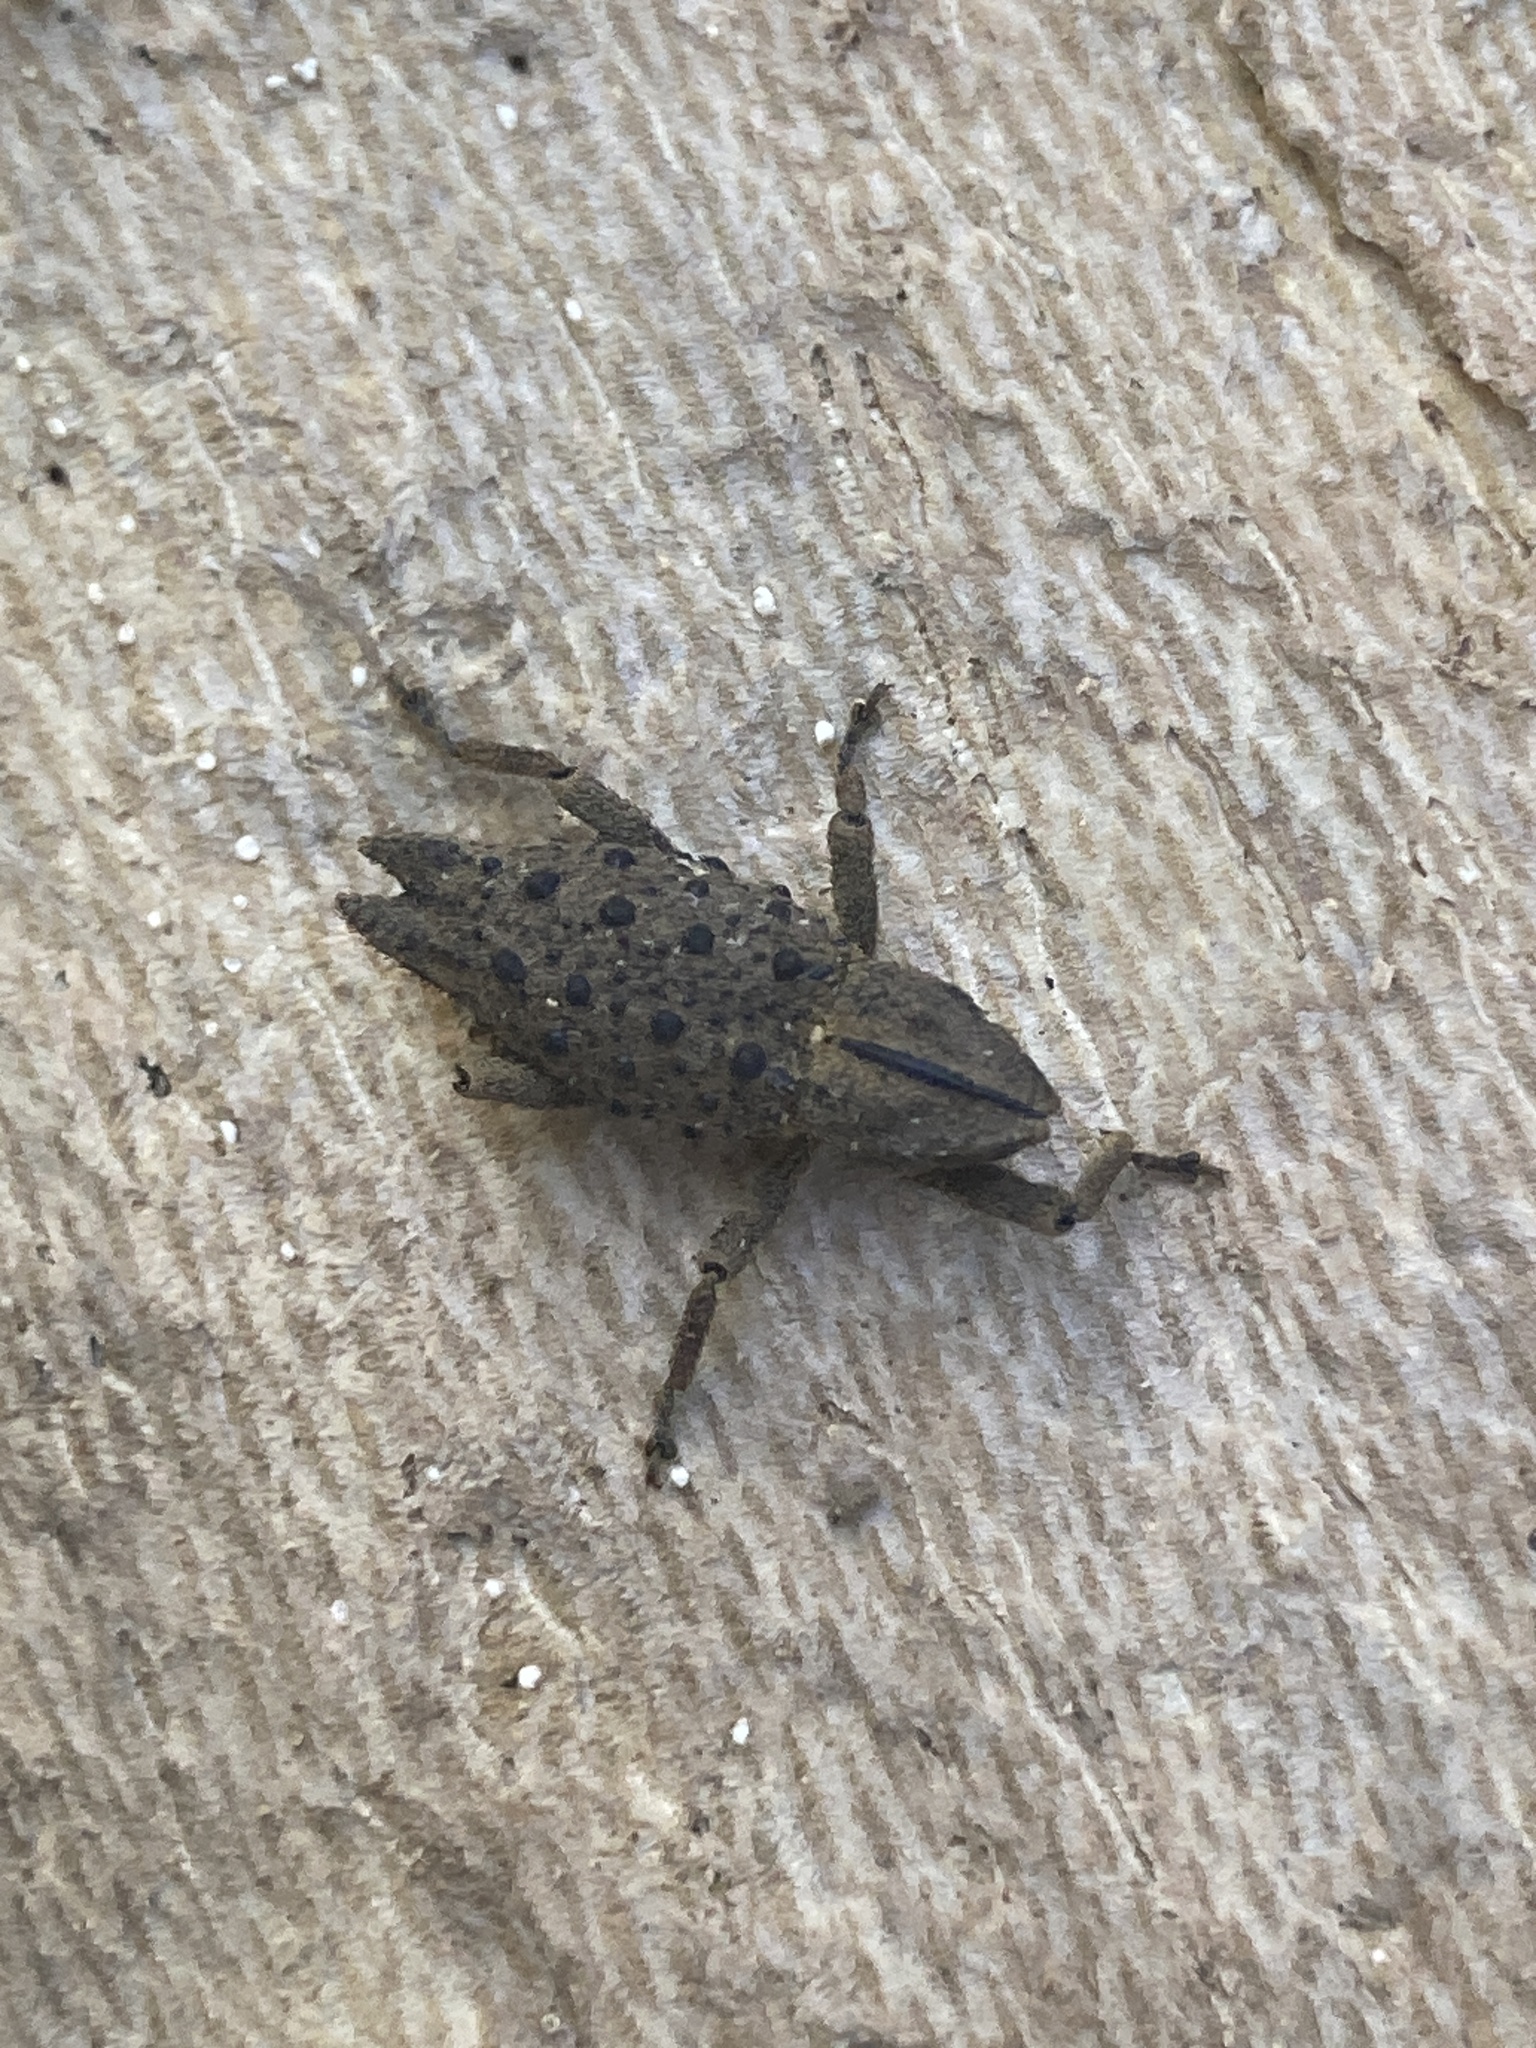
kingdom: Animalia
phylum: Arthropoda
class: Insecta
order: Coleoptera
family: Curculionidae
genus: Poropterus
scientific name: Poropterus ellipticus
